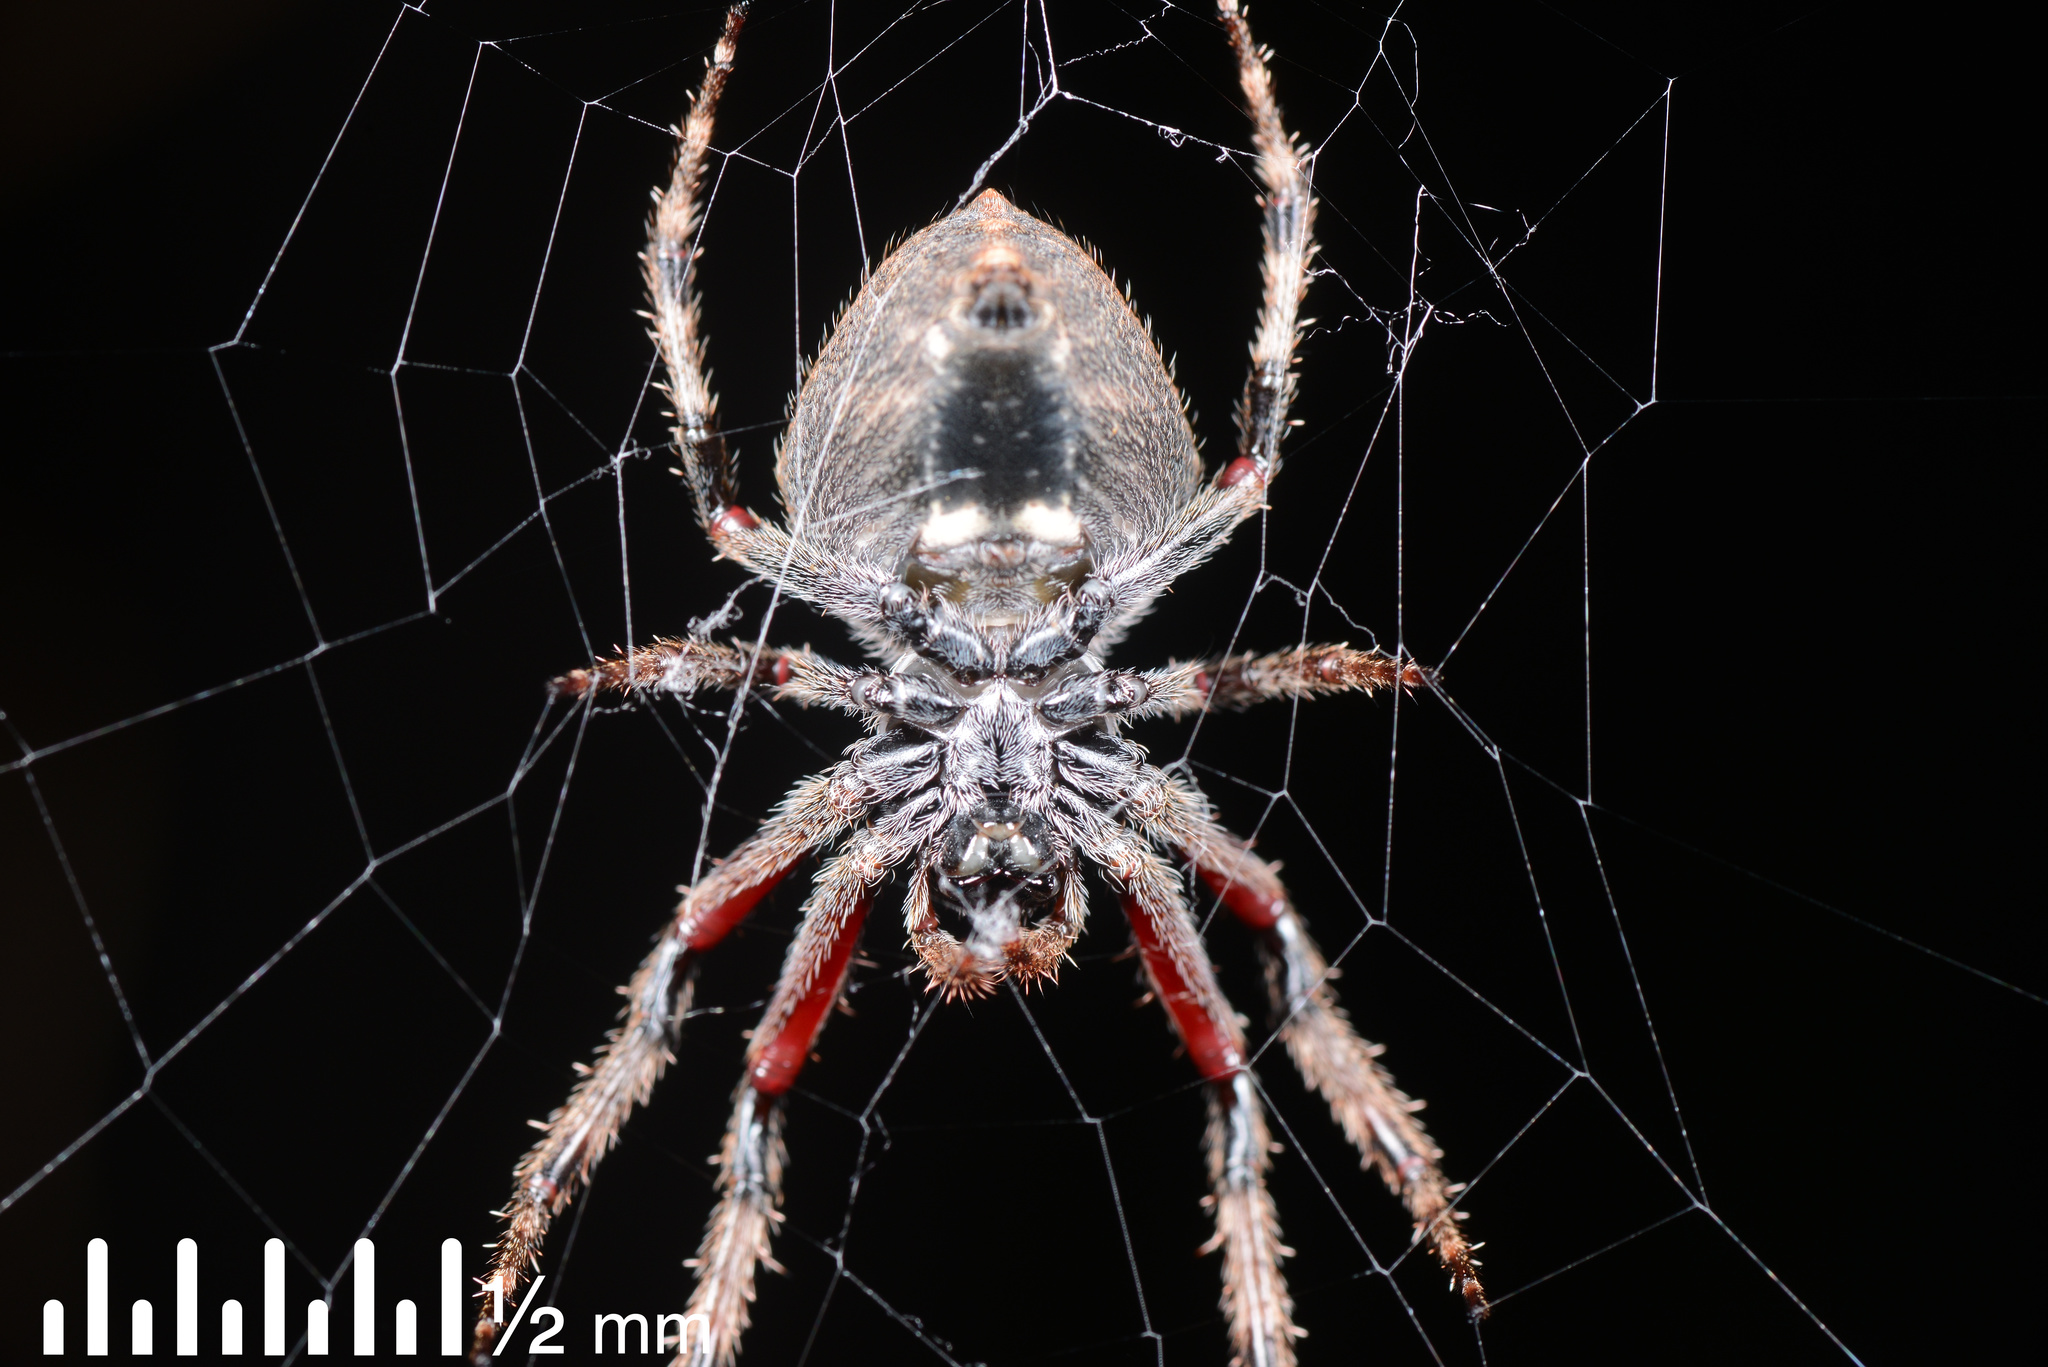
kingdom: Animalia
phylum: Arthropoda
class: Arachnida
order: Araneae
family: Araneidae
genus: Eriophora
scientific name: Eriophora pustulosa
